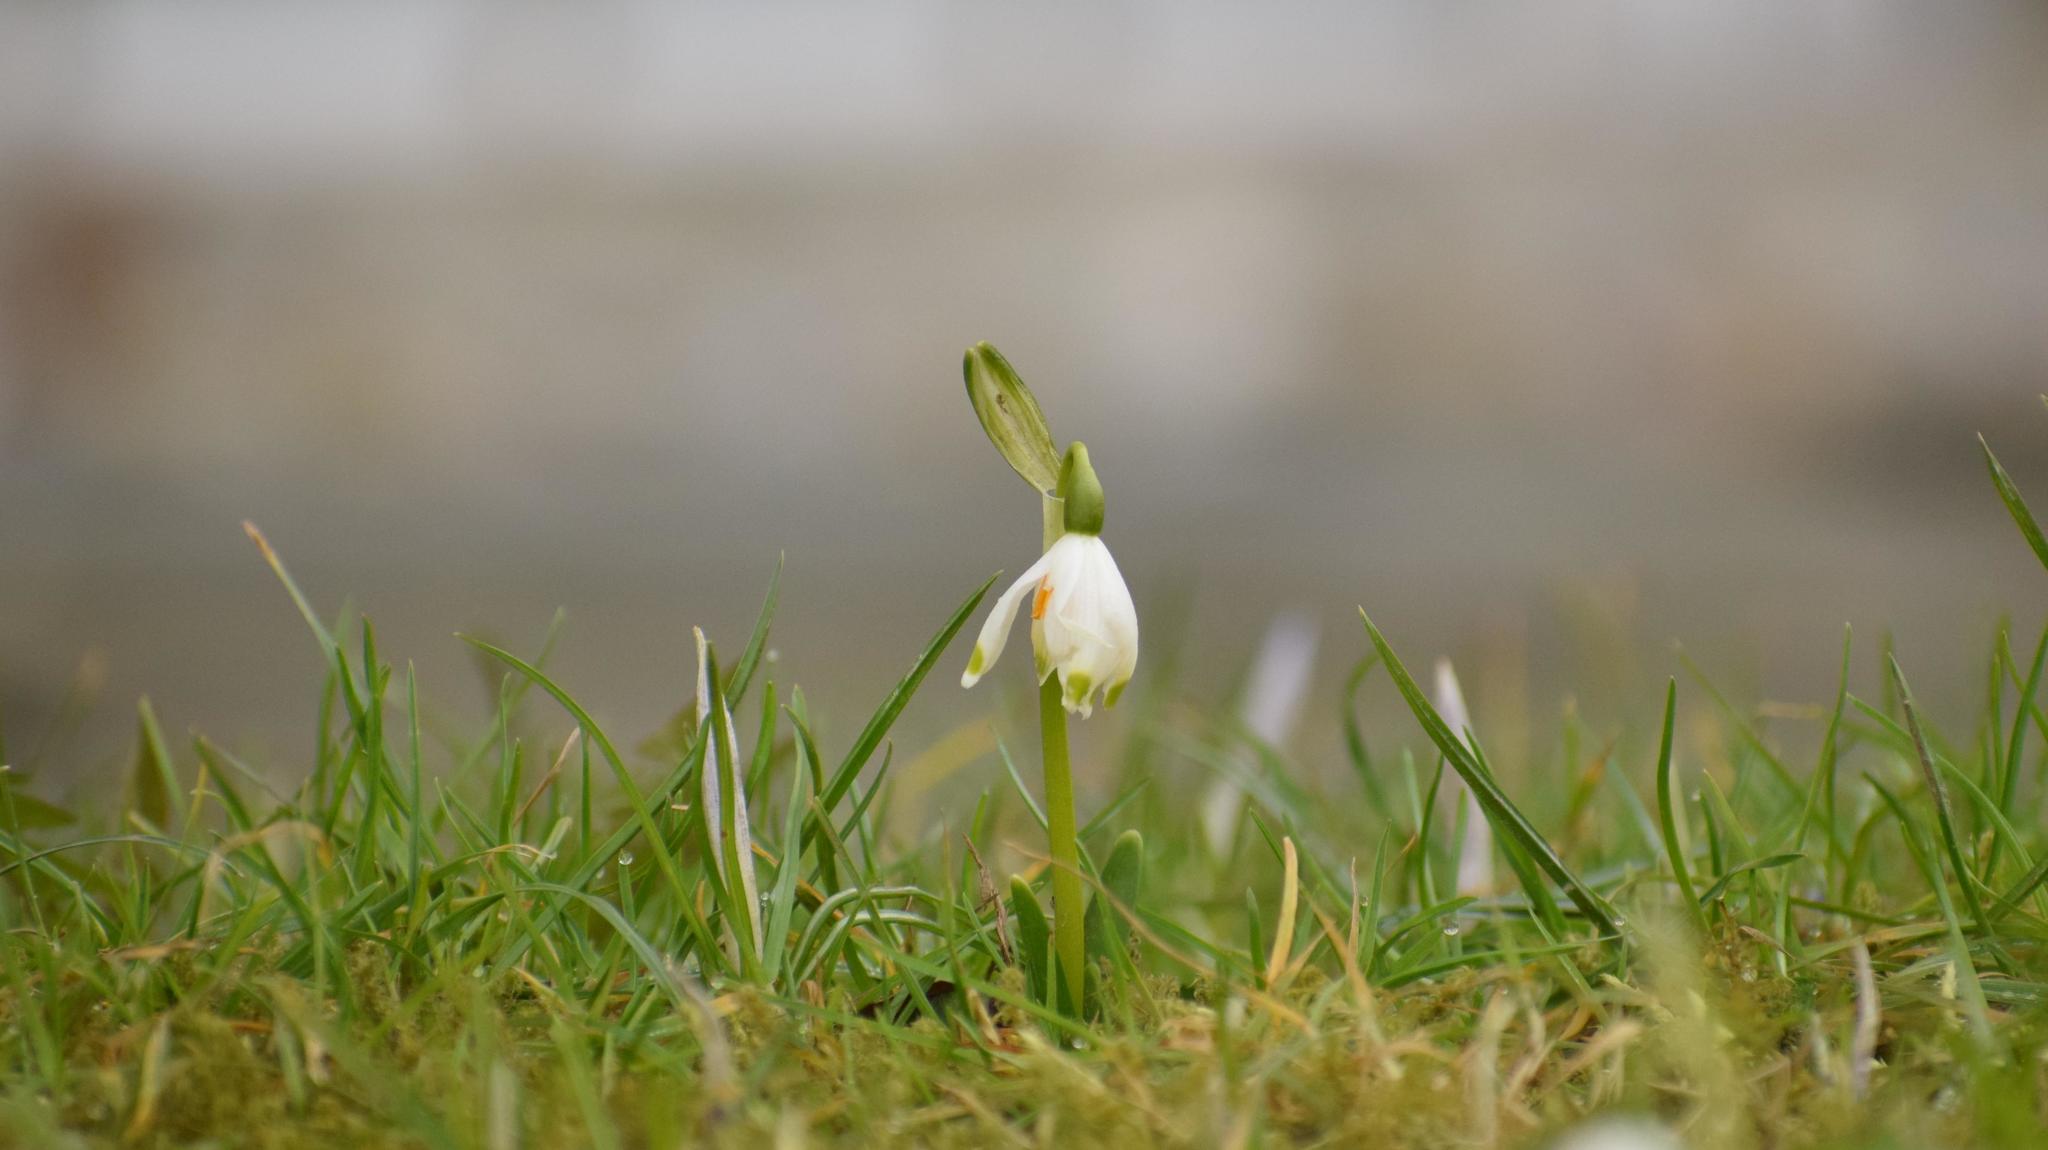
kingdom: Plantae
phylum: Tracheophyta
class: Liliopsida
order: Asparagales
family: Amaryllidaceae
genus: Leucojum
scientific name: Leucojum vernum
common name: Spring snowflake
